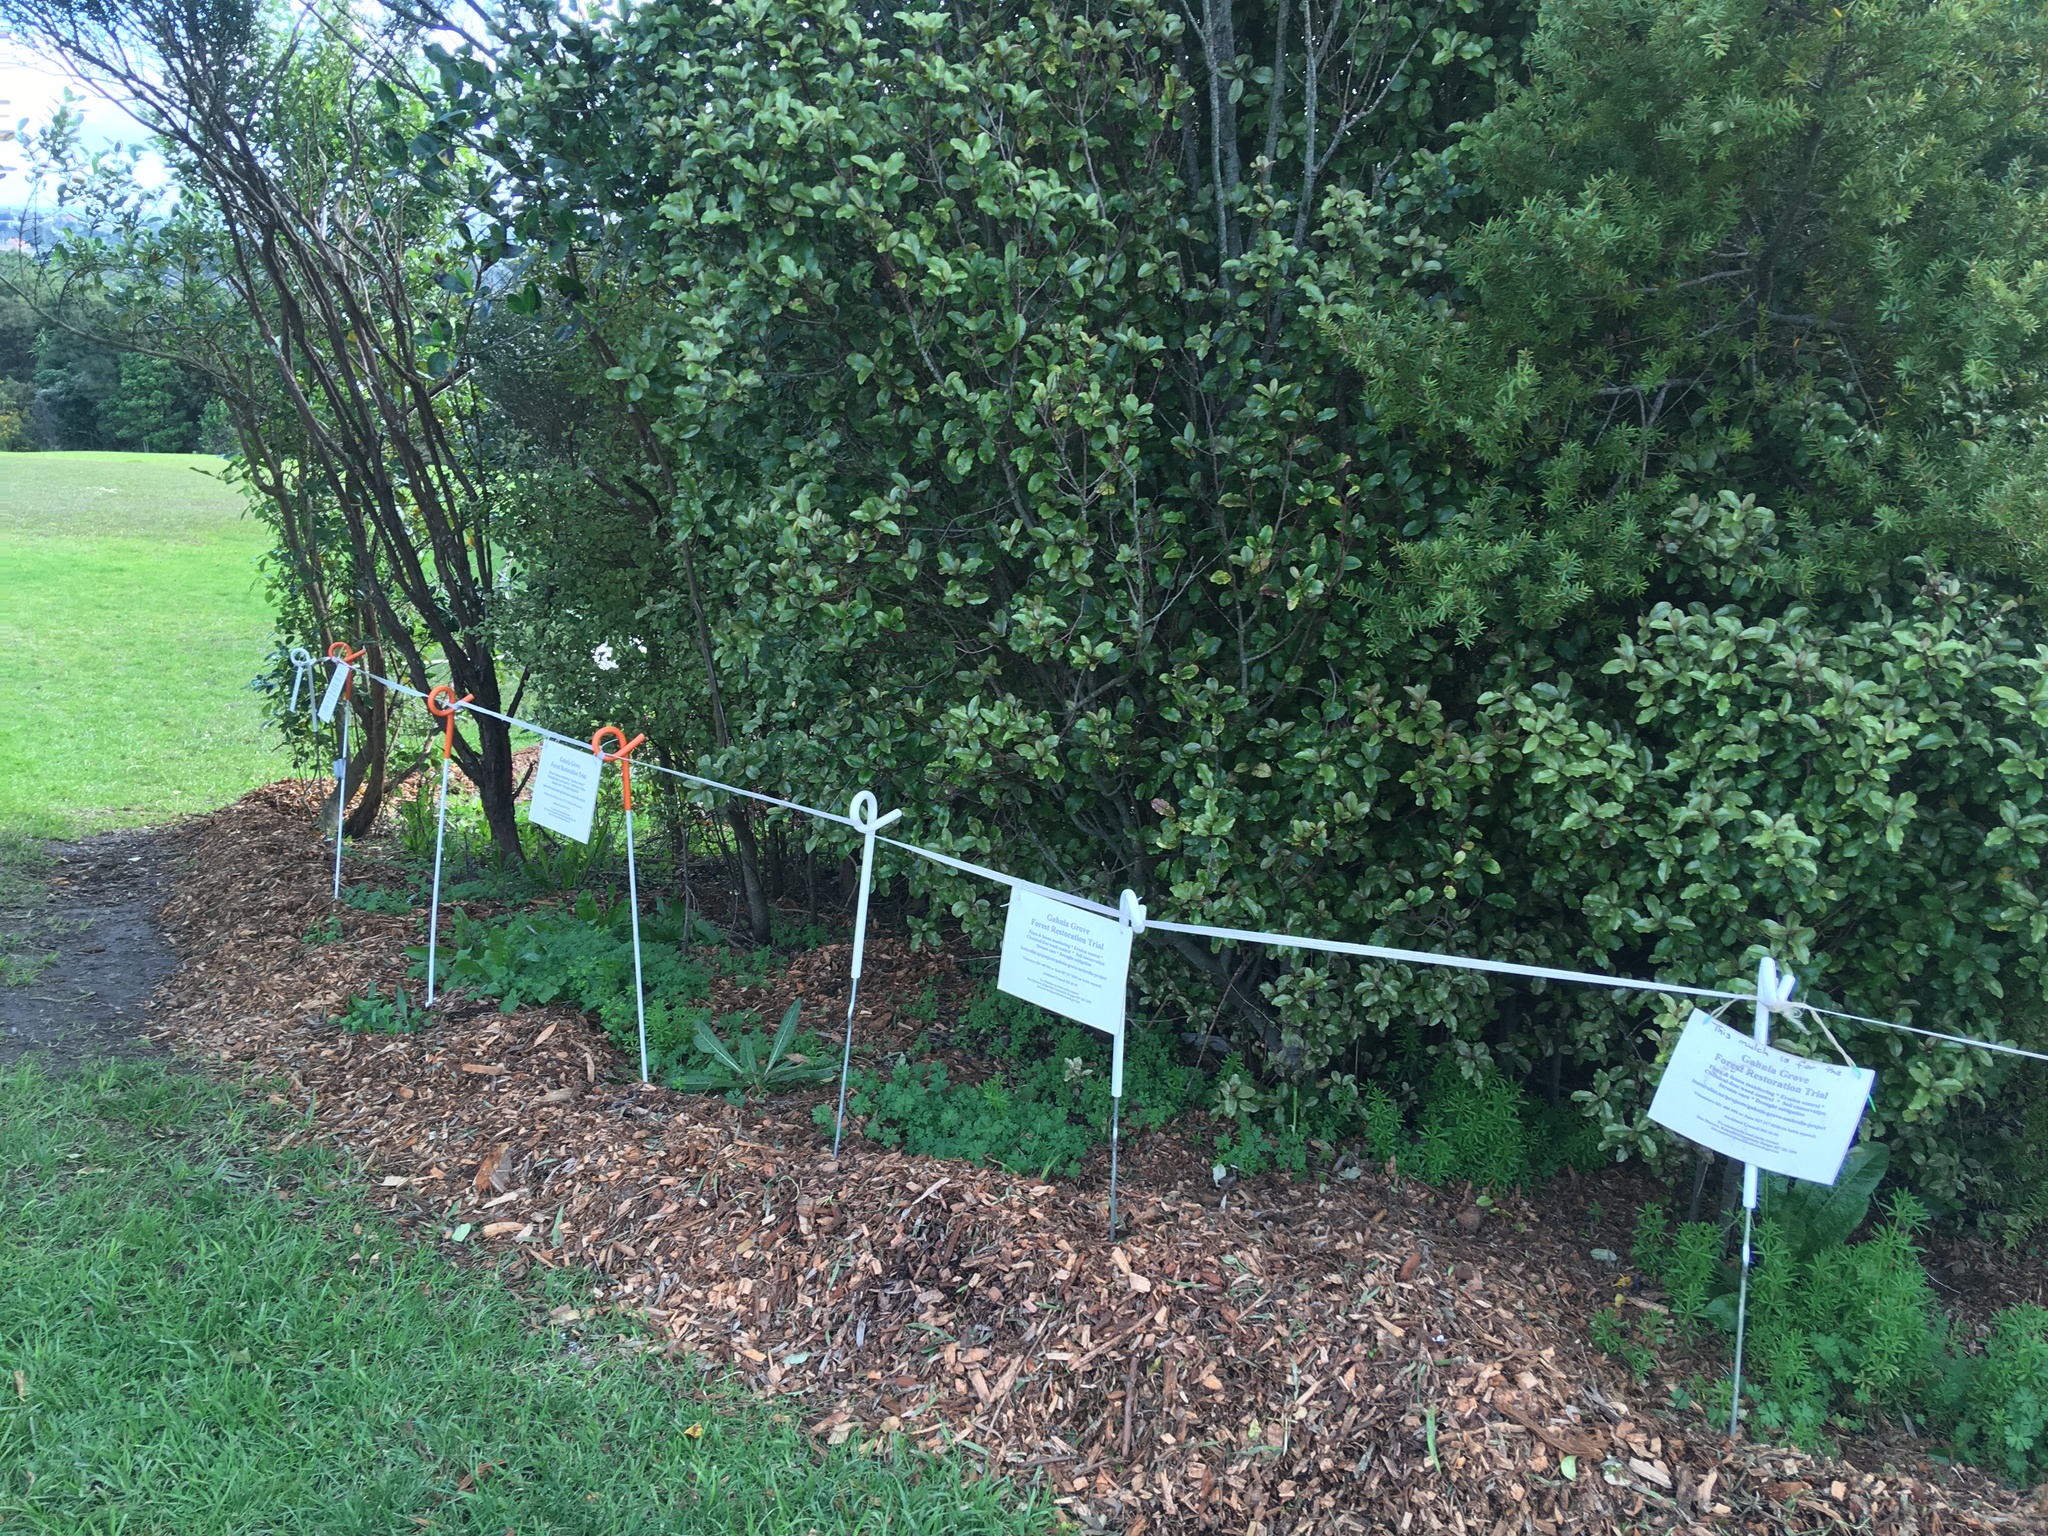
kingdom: Plantae
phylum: Tracheophyta
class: Magnoliopsida
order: Ericales
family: Primulaceae
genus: Myrsine
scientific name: Myrsine australis
